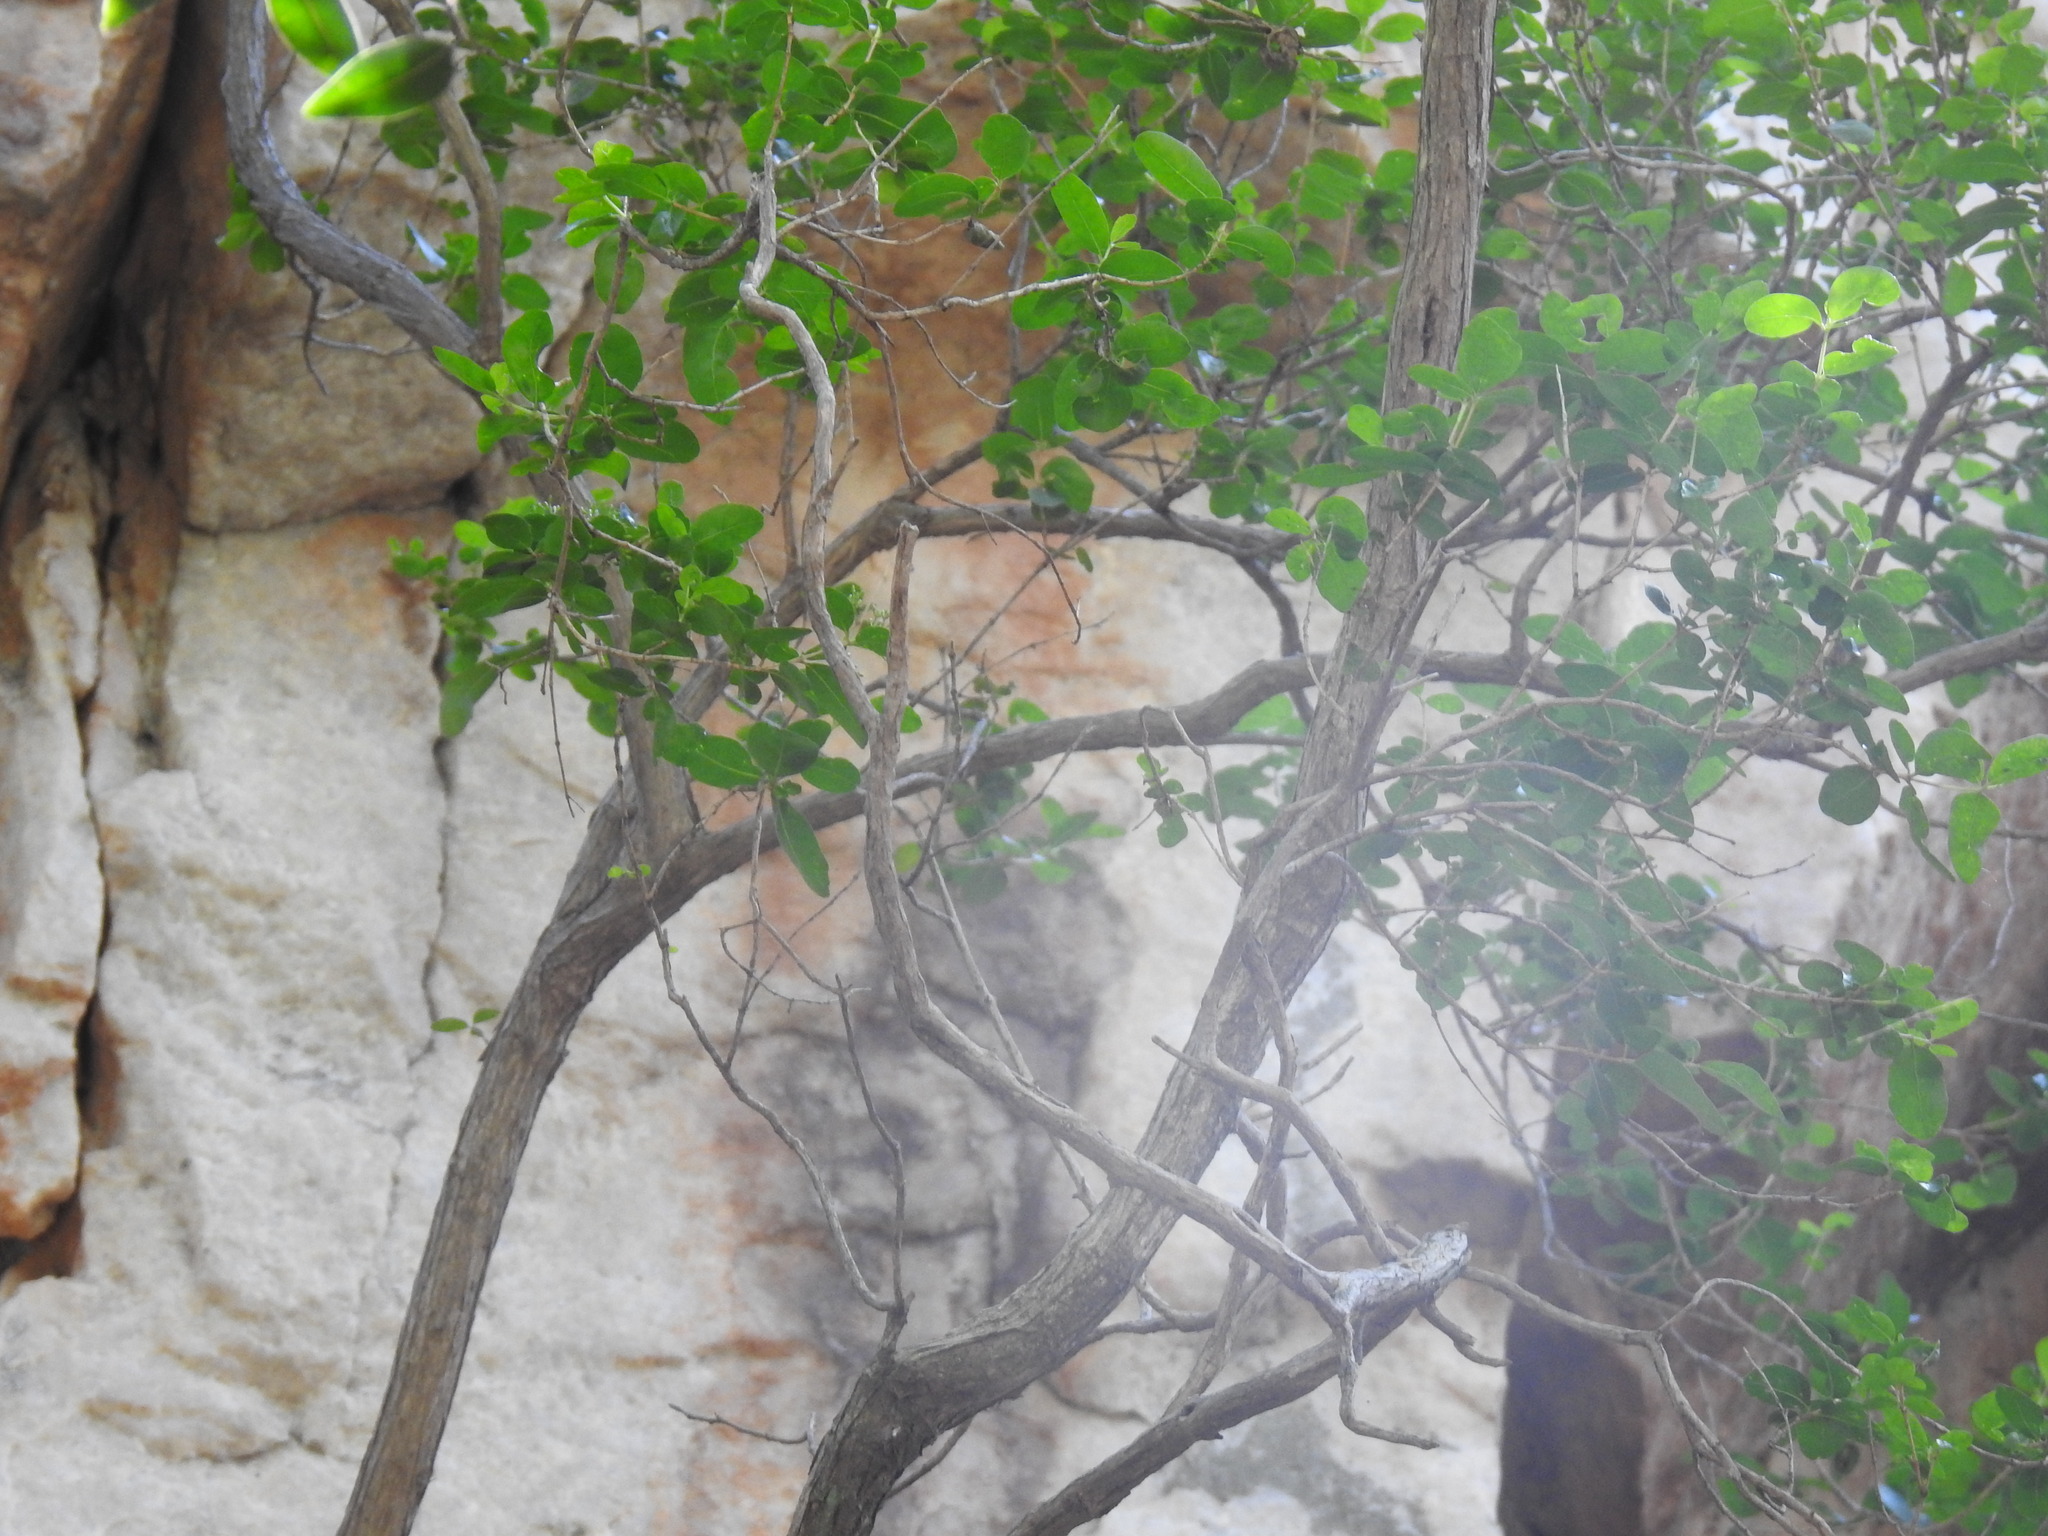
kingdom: Plantae
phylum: Tracheophyta
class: Magnoliopsida
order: Lamiales
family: Stilbaceae
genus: Nuxia
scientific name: Nuxia congesta
